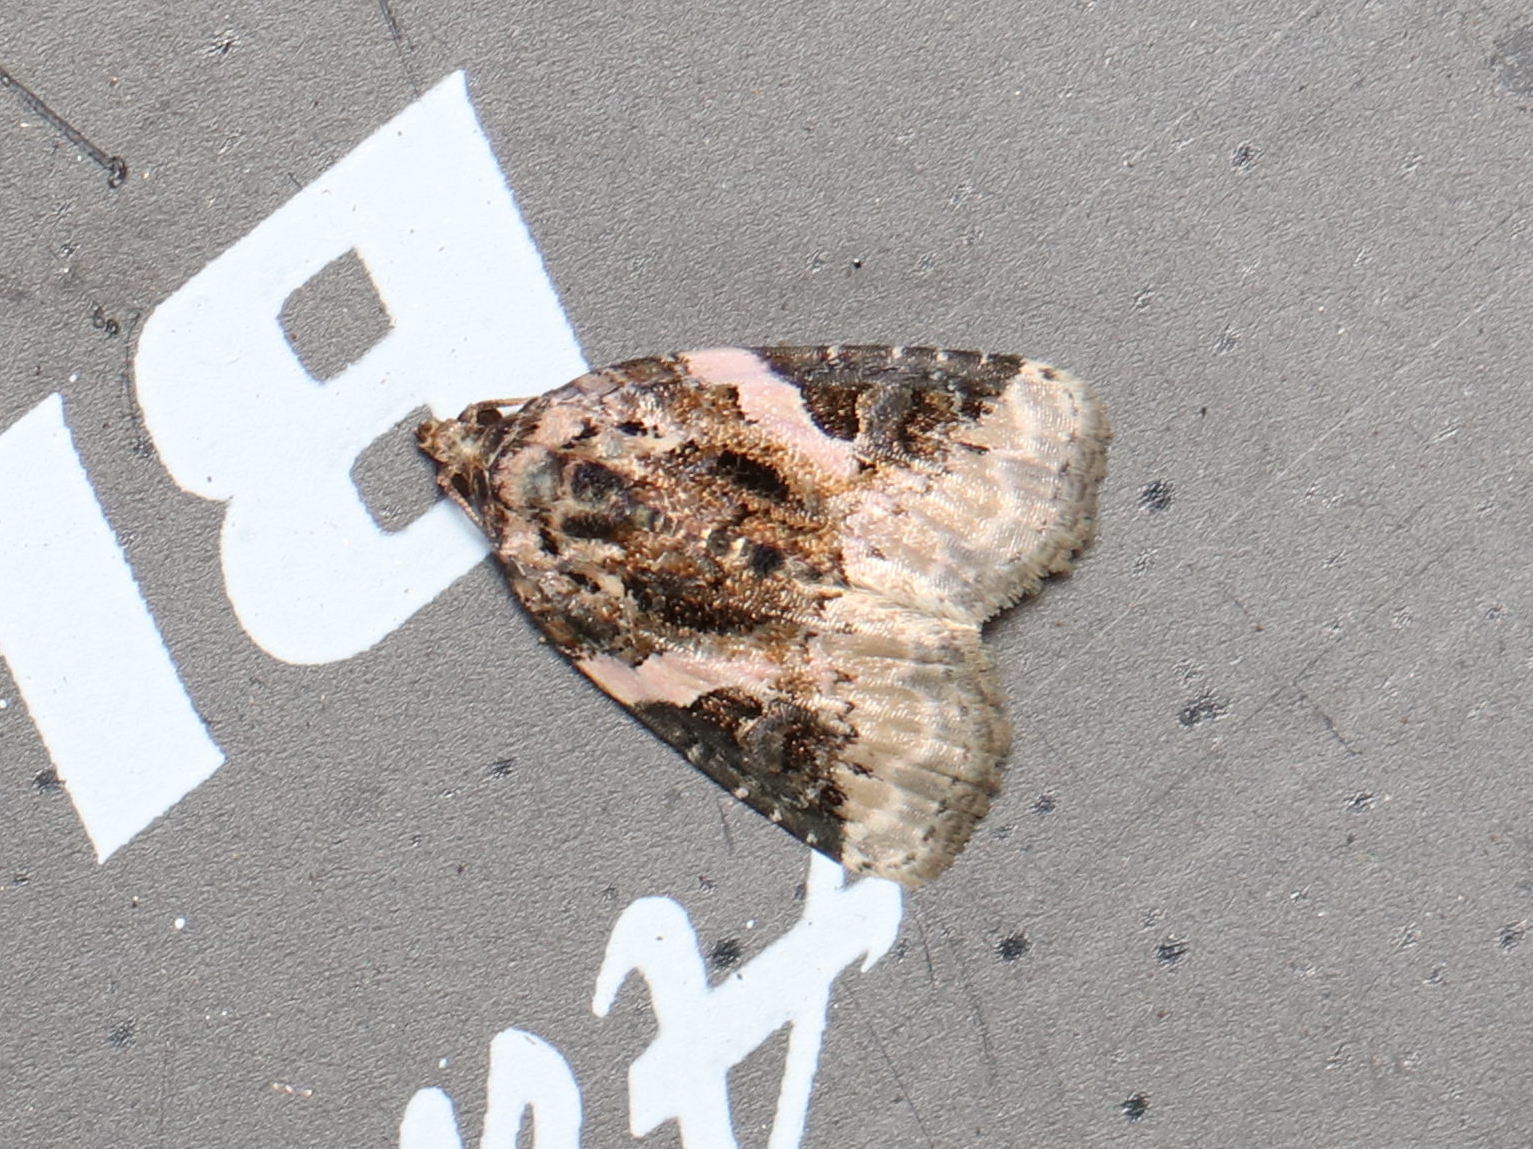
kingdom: Animalia
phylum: Arthropoda
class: Insecta
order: Lepidoptera
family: Noctuidae
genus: Pseudeustrotia
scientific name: Pseudeustrotia carneola
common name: Pink-barred lithacodia moth
